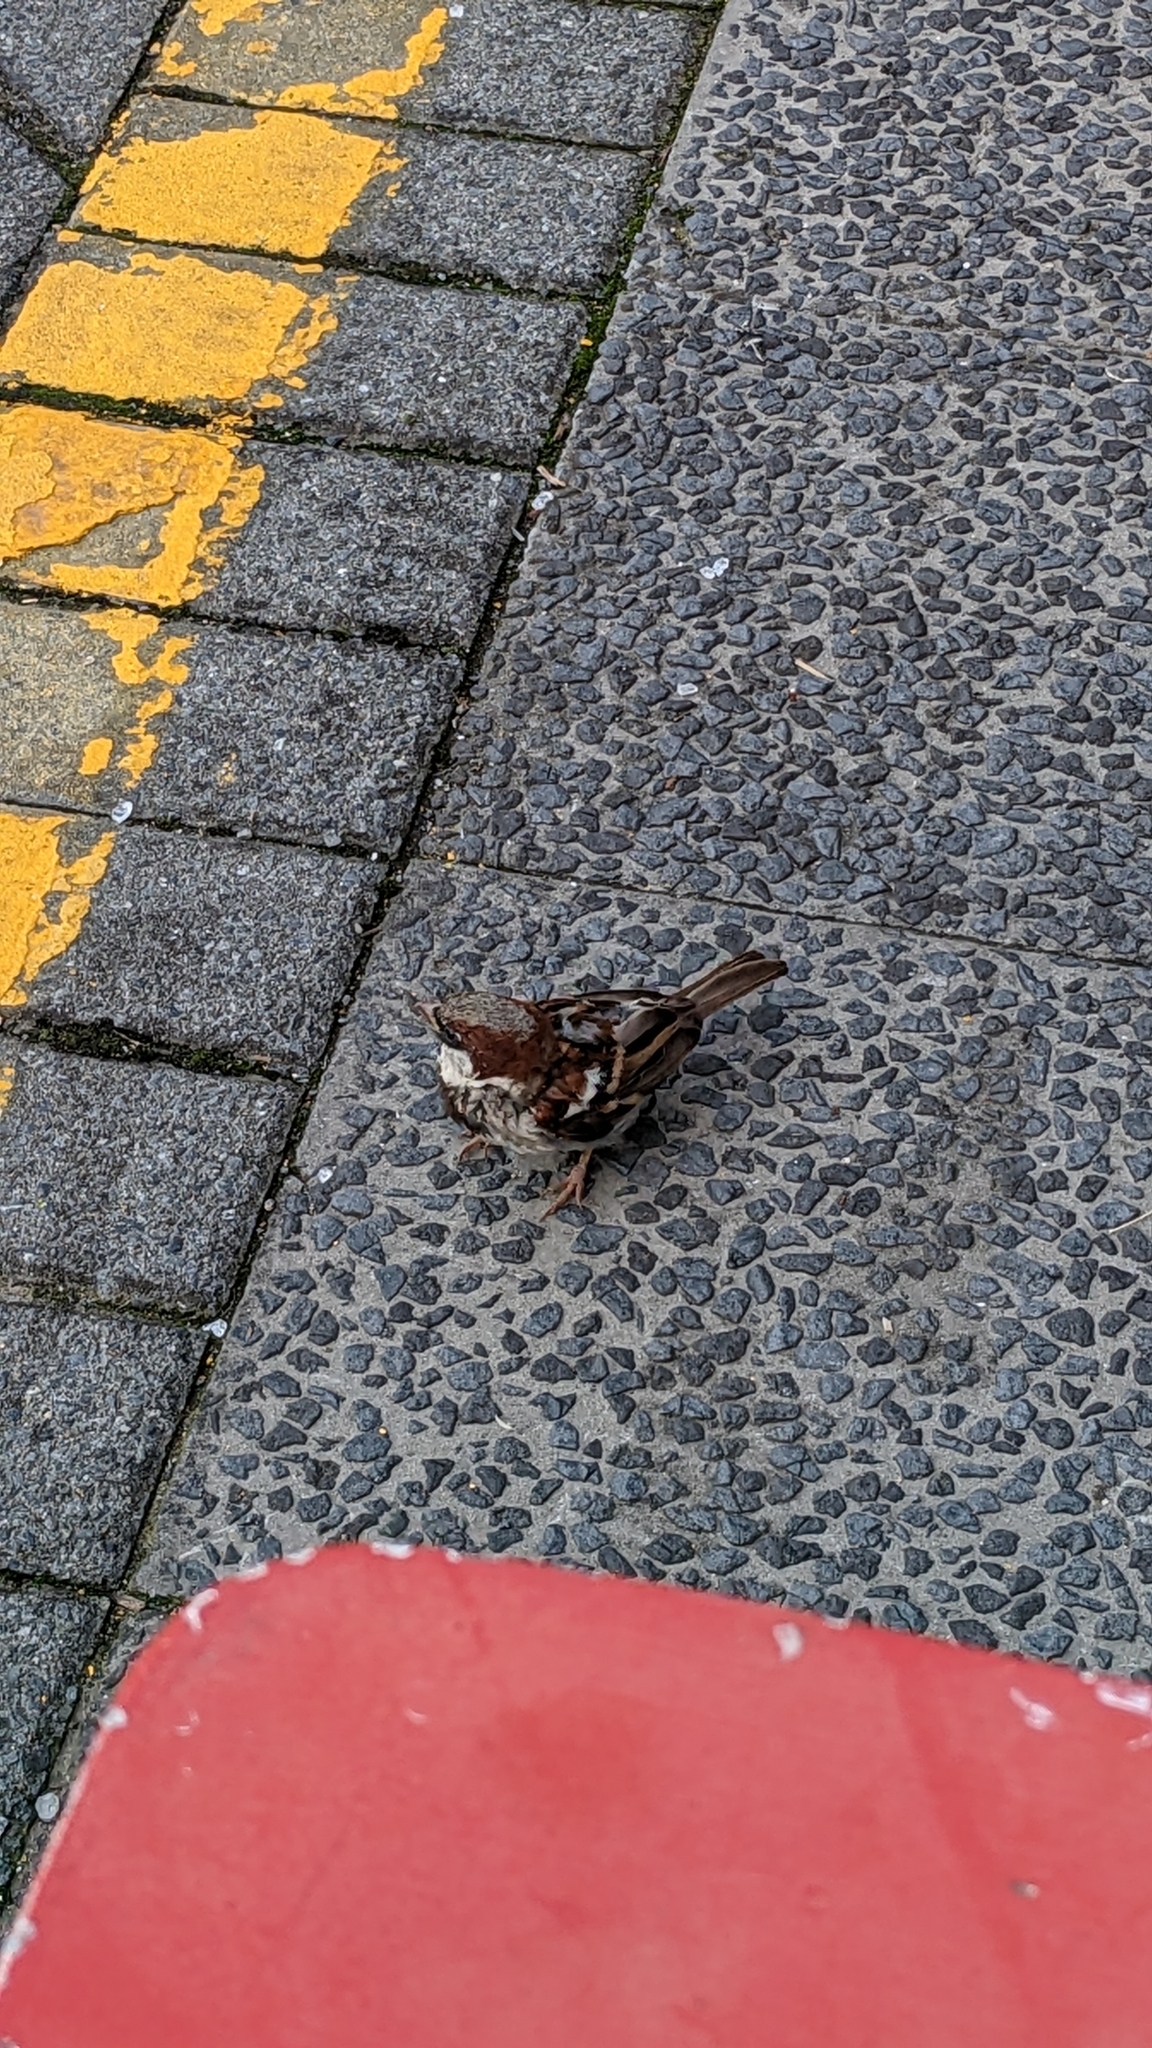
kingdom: Animalia
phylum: Chordata
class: Aves
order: Passeriformes
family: Passeridae
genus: Passer
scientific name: Passer domesticus
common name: House sparrow
